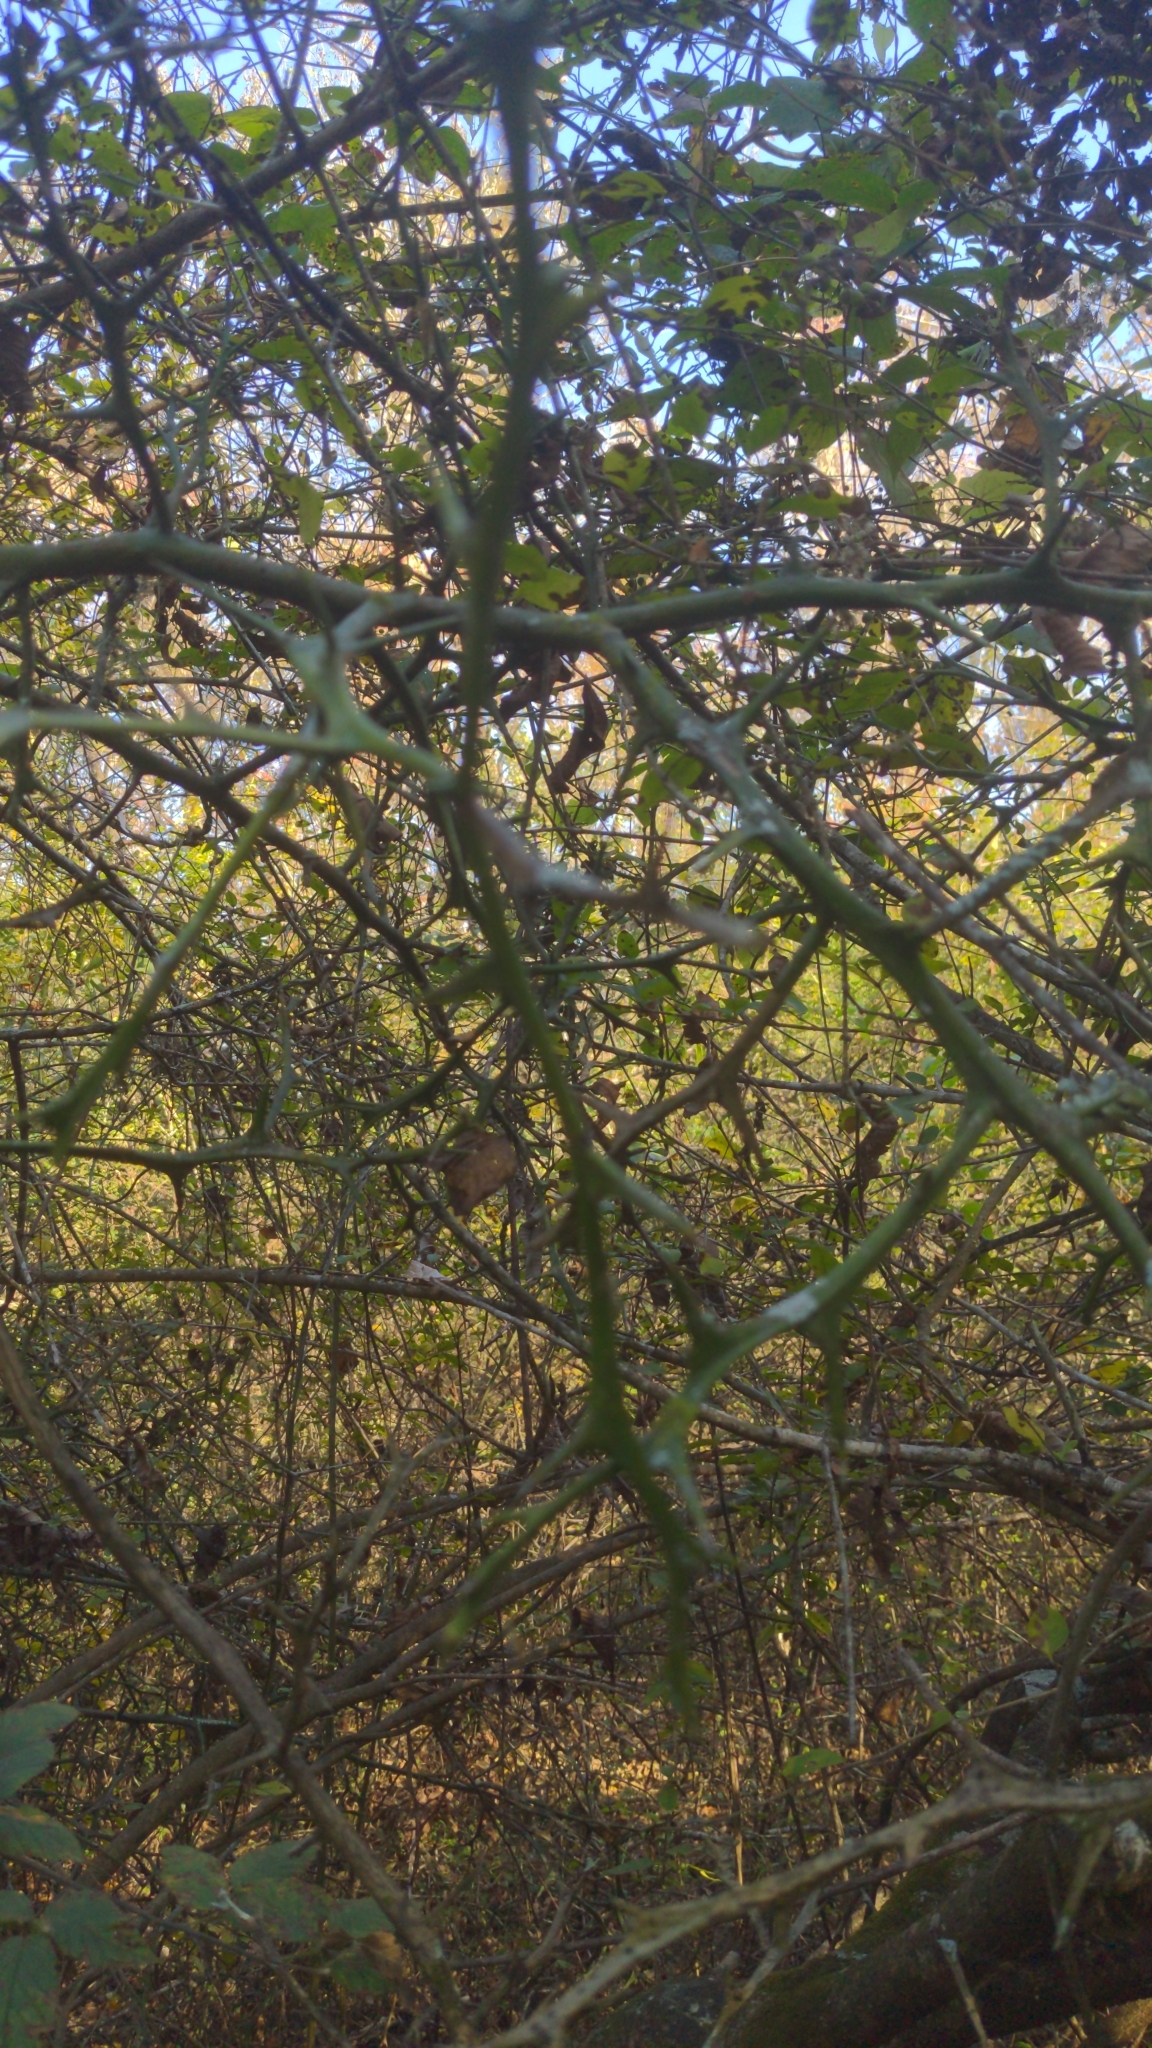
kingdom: Plantae
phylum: Tracheophyta
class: Magnoliopsida
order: Sapindales
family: Rutaceae
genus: Citrus
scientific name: Citrus trifoliata
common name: Japanese bitter-orange
